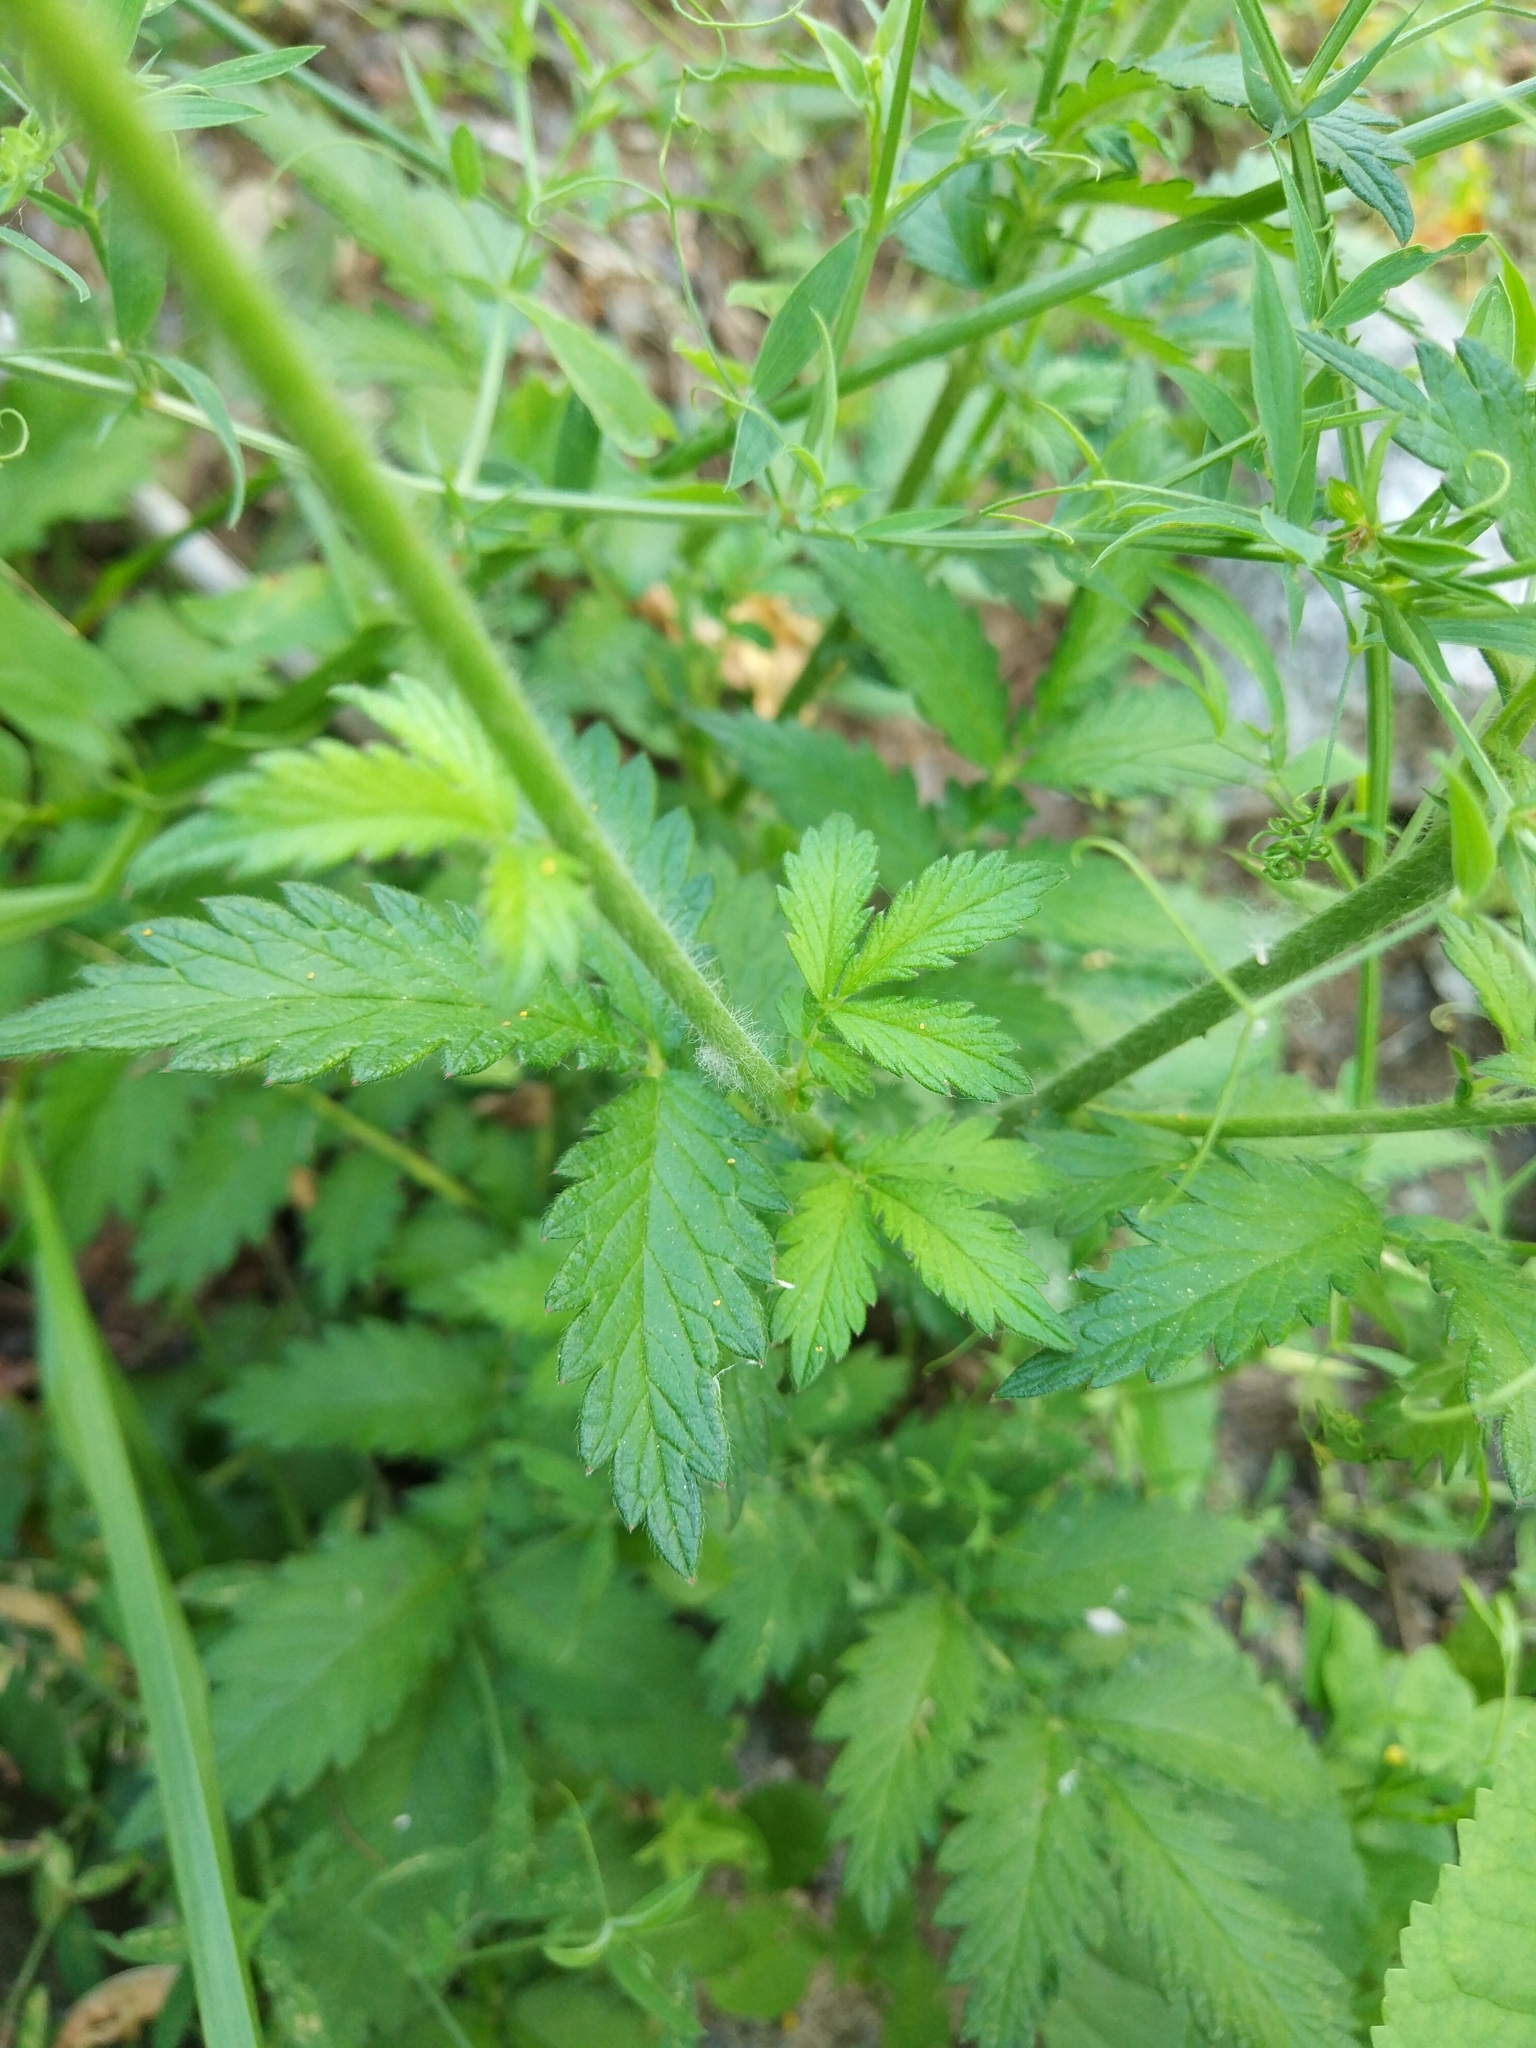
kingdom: Plantae
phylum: Tracheophyta
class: Magnoliopsida
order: Rosales
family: Rosaceae
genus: Agrimonia
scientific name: Agrimonia eupatoria
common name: Agrimony
